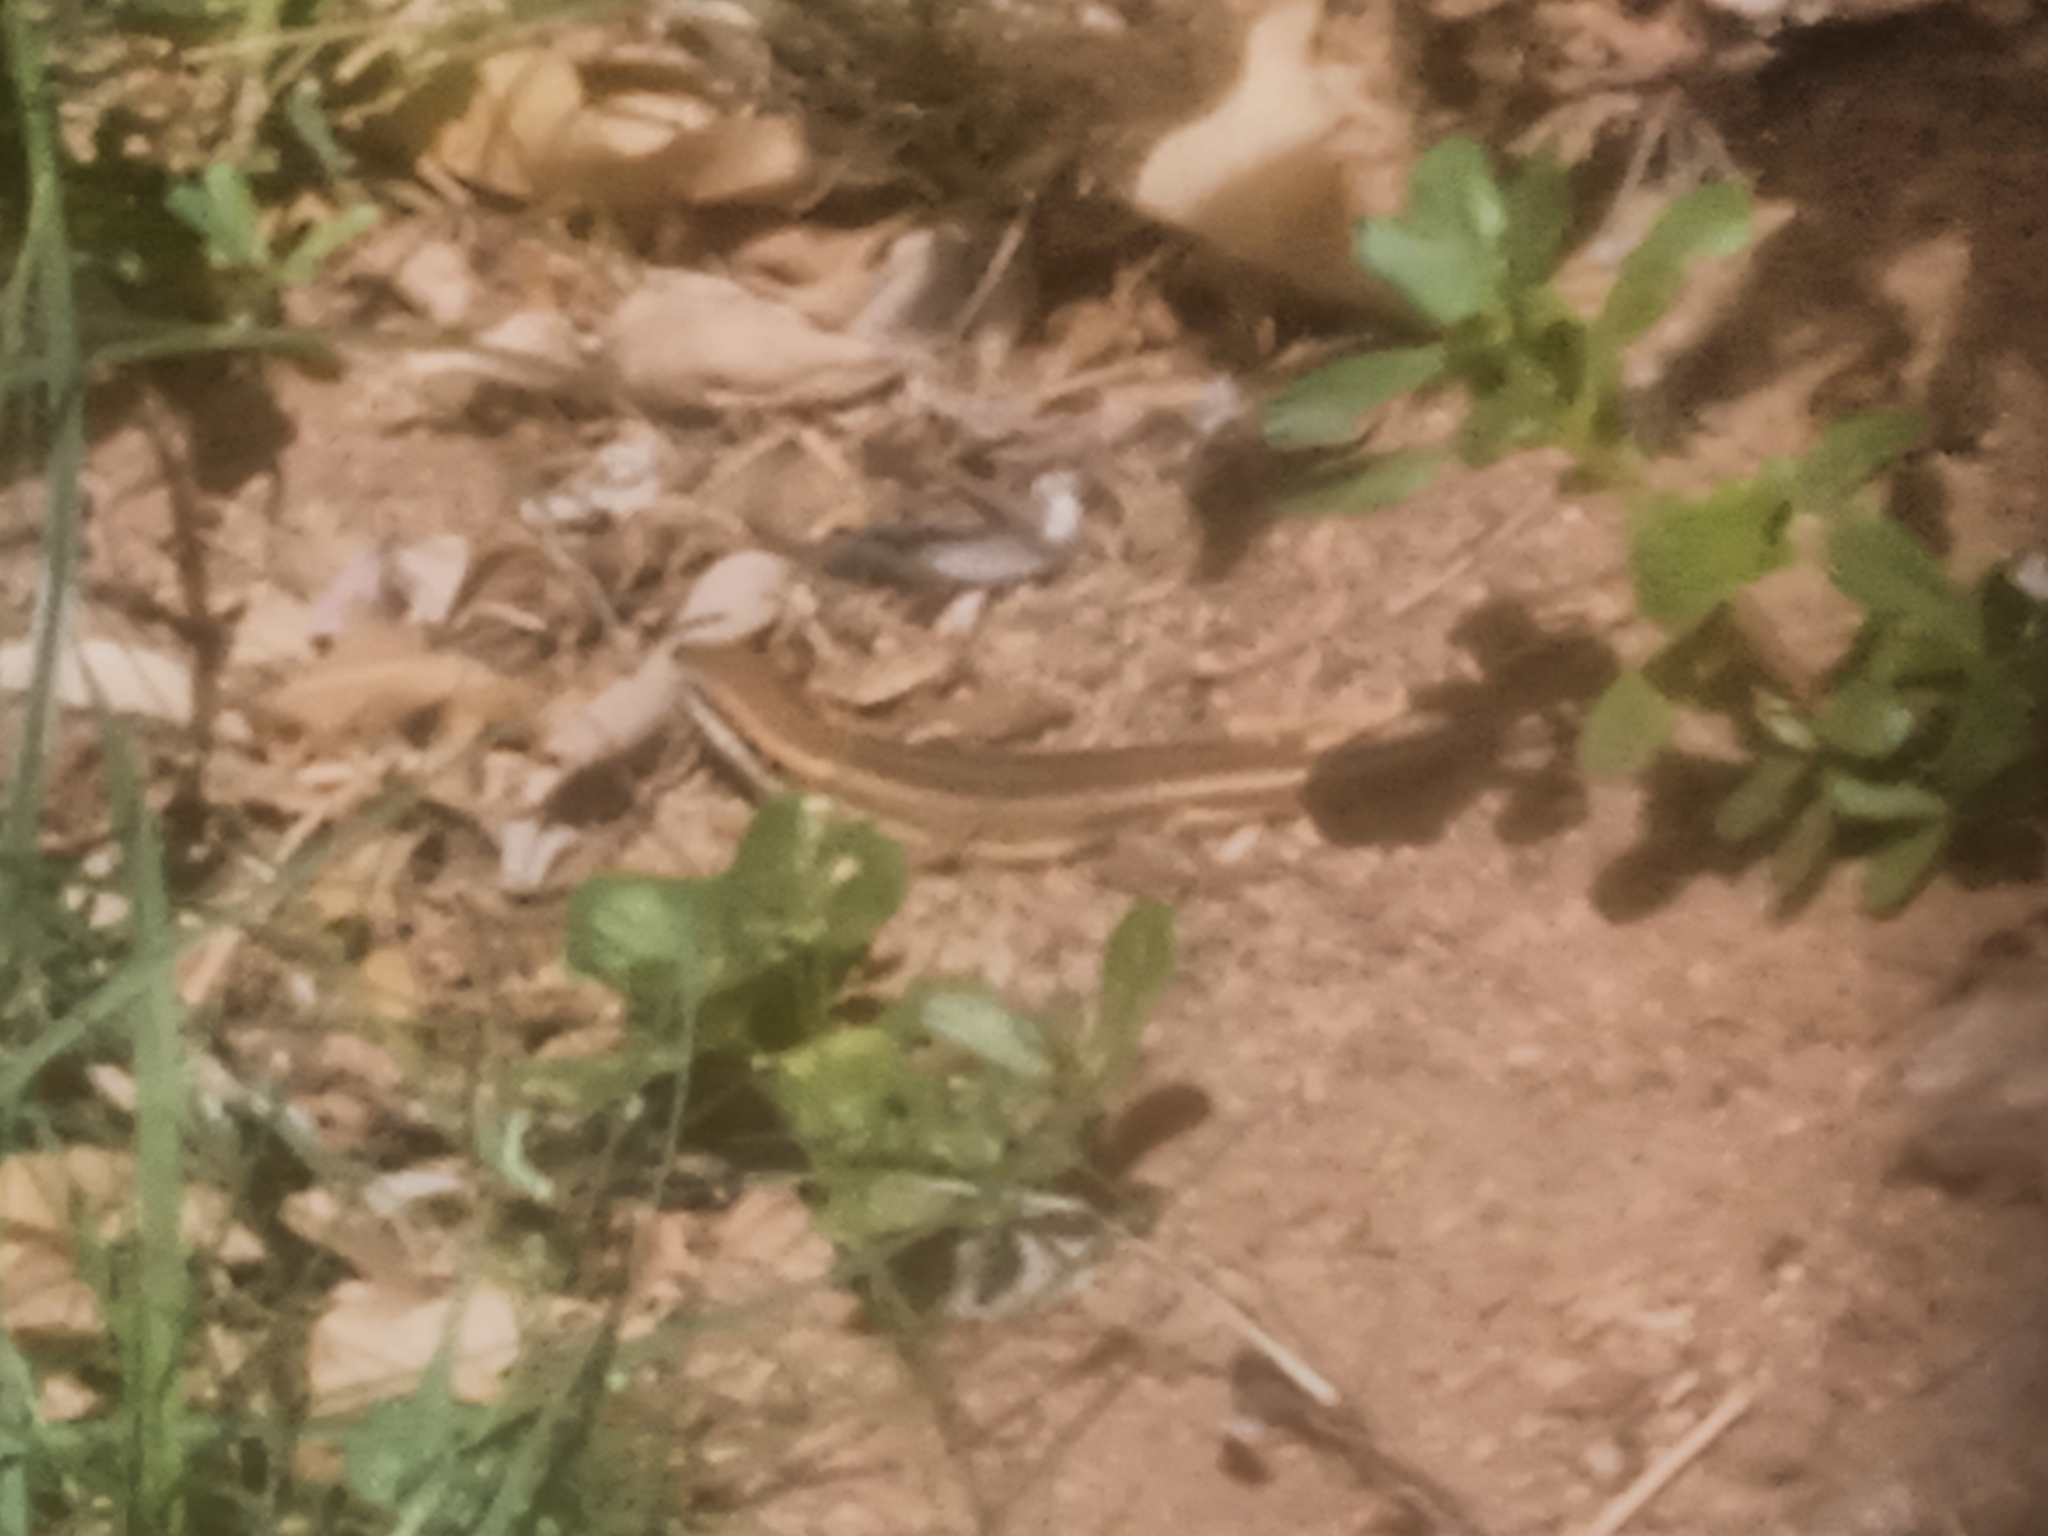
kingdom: Animalia
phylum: Chordata
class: Squamata
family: Scincidae
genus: Trachylepis
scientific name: Trachylepis quinquetaeniata
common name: African five-lined skink
